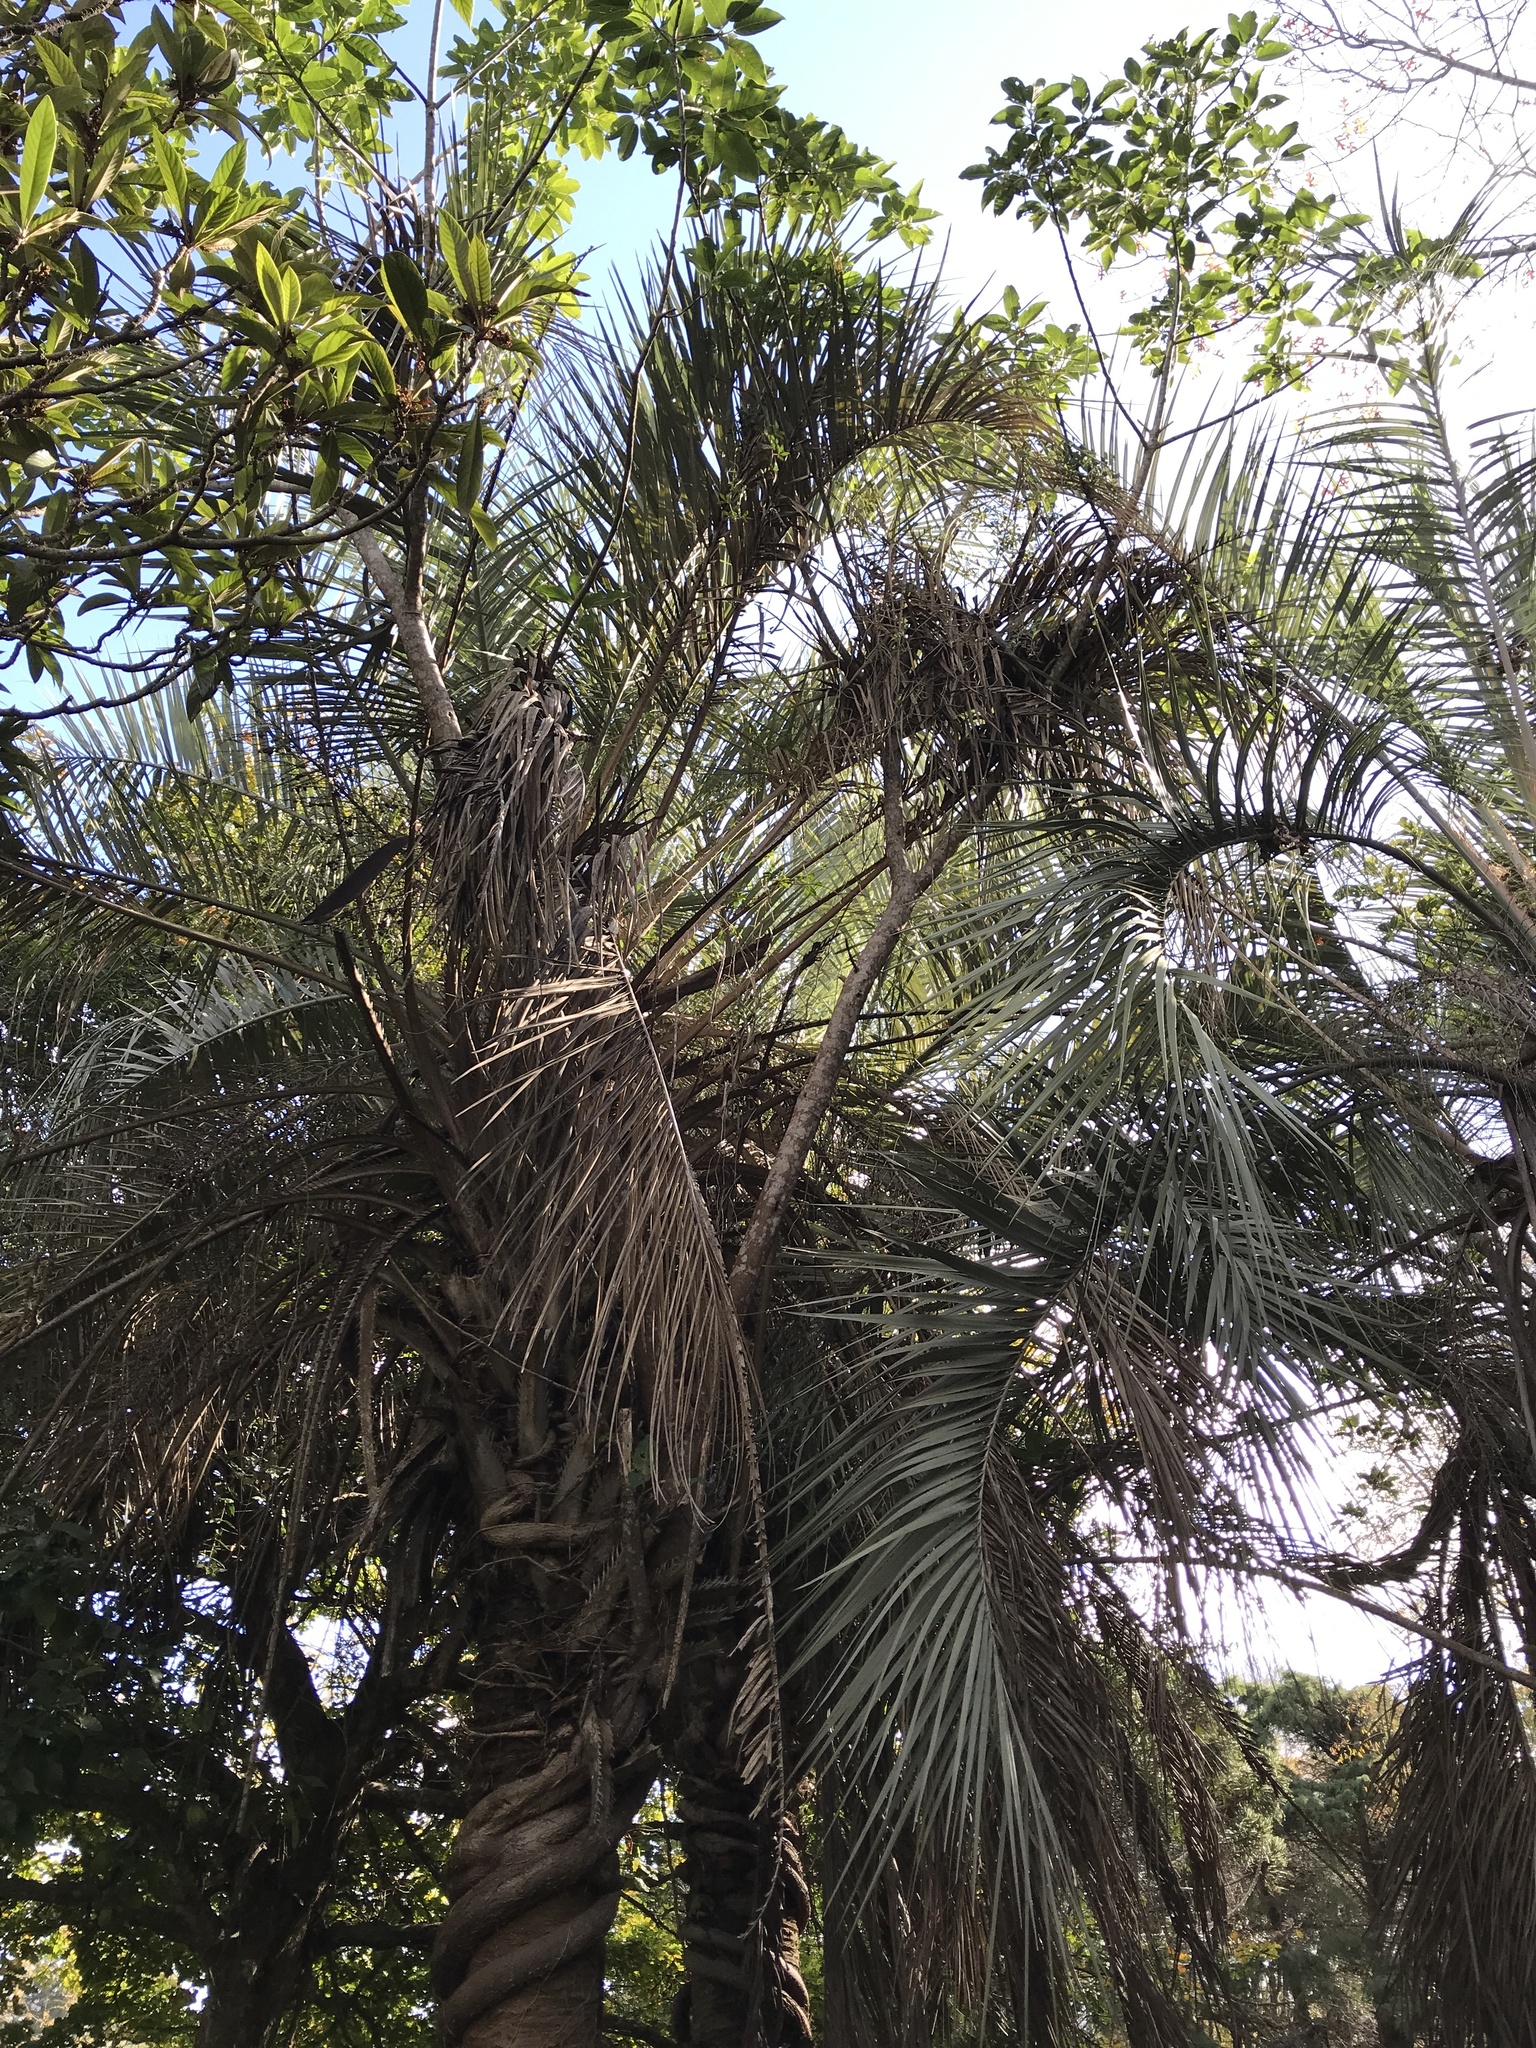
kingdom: Plantae
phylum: Tracheophyta
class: Magnoliopsida
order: Rosales
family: Moraceae
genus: Ficus
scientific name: Ficus luschnathiana
